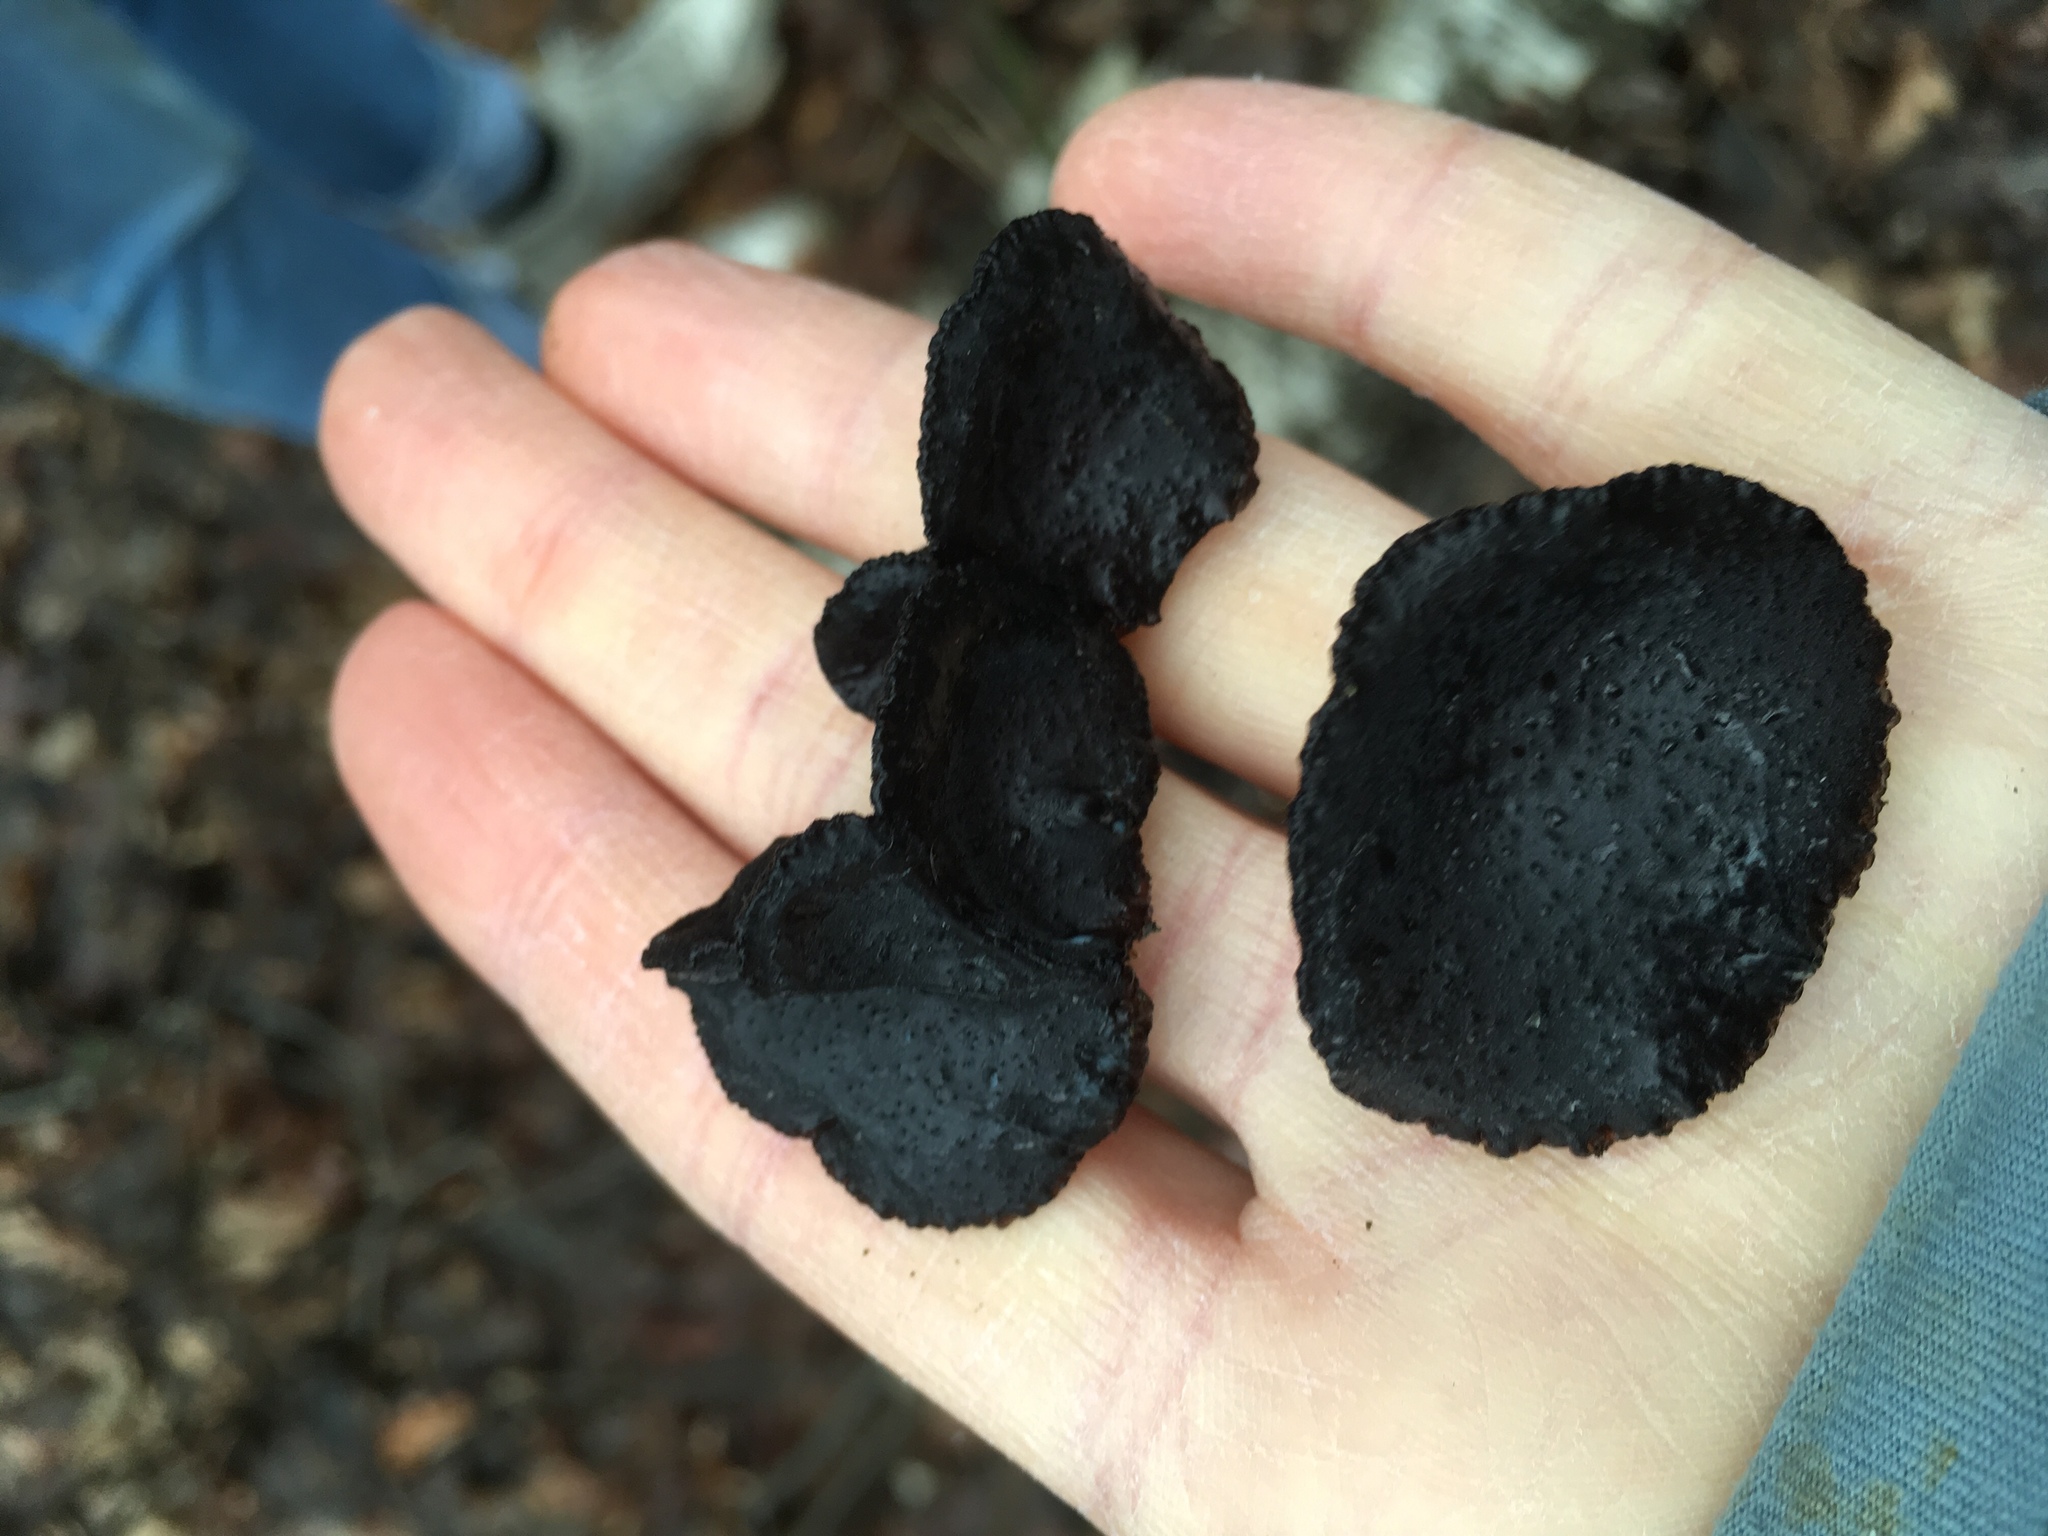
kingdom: Fungi
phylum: Basidiomycota
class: Agaricomycetes
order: Auriculariales
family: Auriculariaceae
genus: Exidia
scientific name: Exidia glandulosa
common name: Witches' butter
